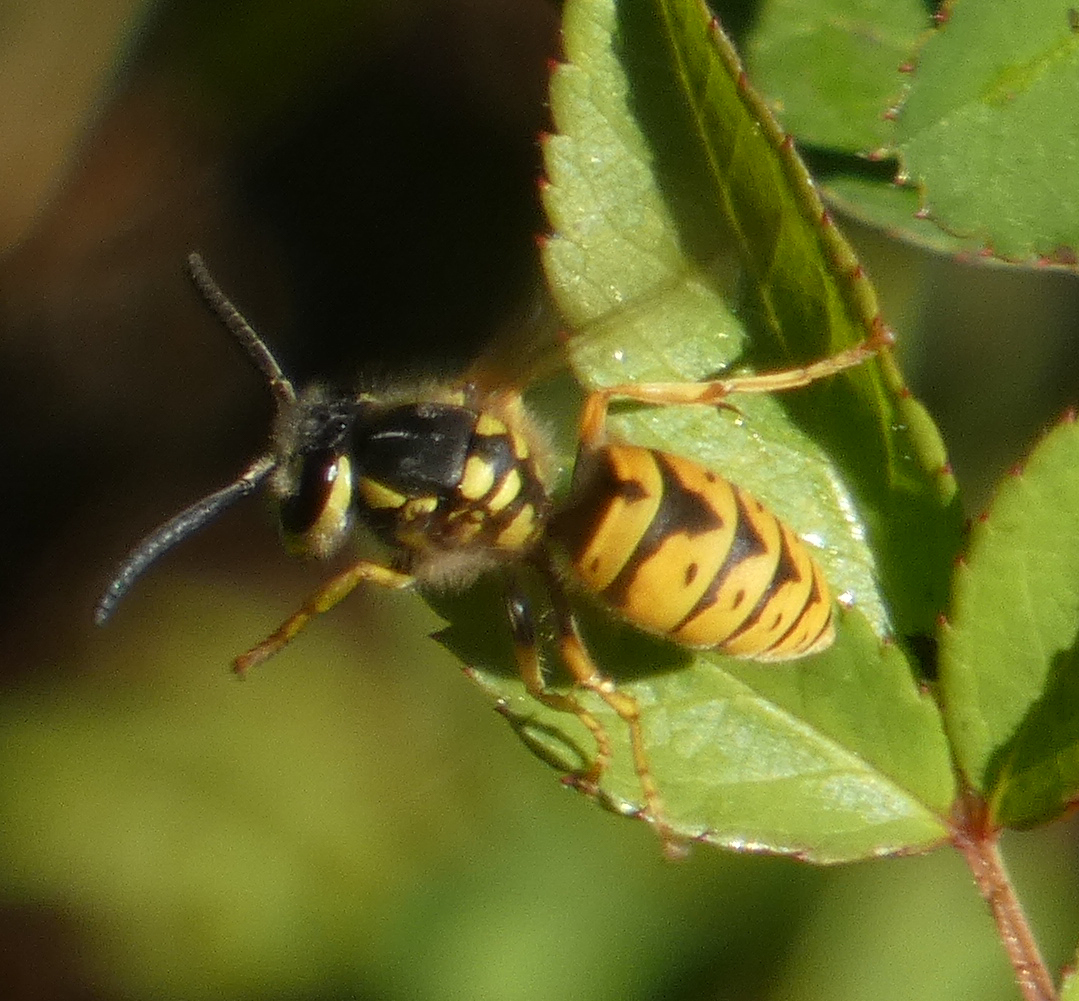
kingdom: Animalia
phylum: Arthropoda
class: Insecta
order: Hymenoptera
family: Vespidae
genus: Vespula
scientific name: Vespula germanica
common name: German wasp
